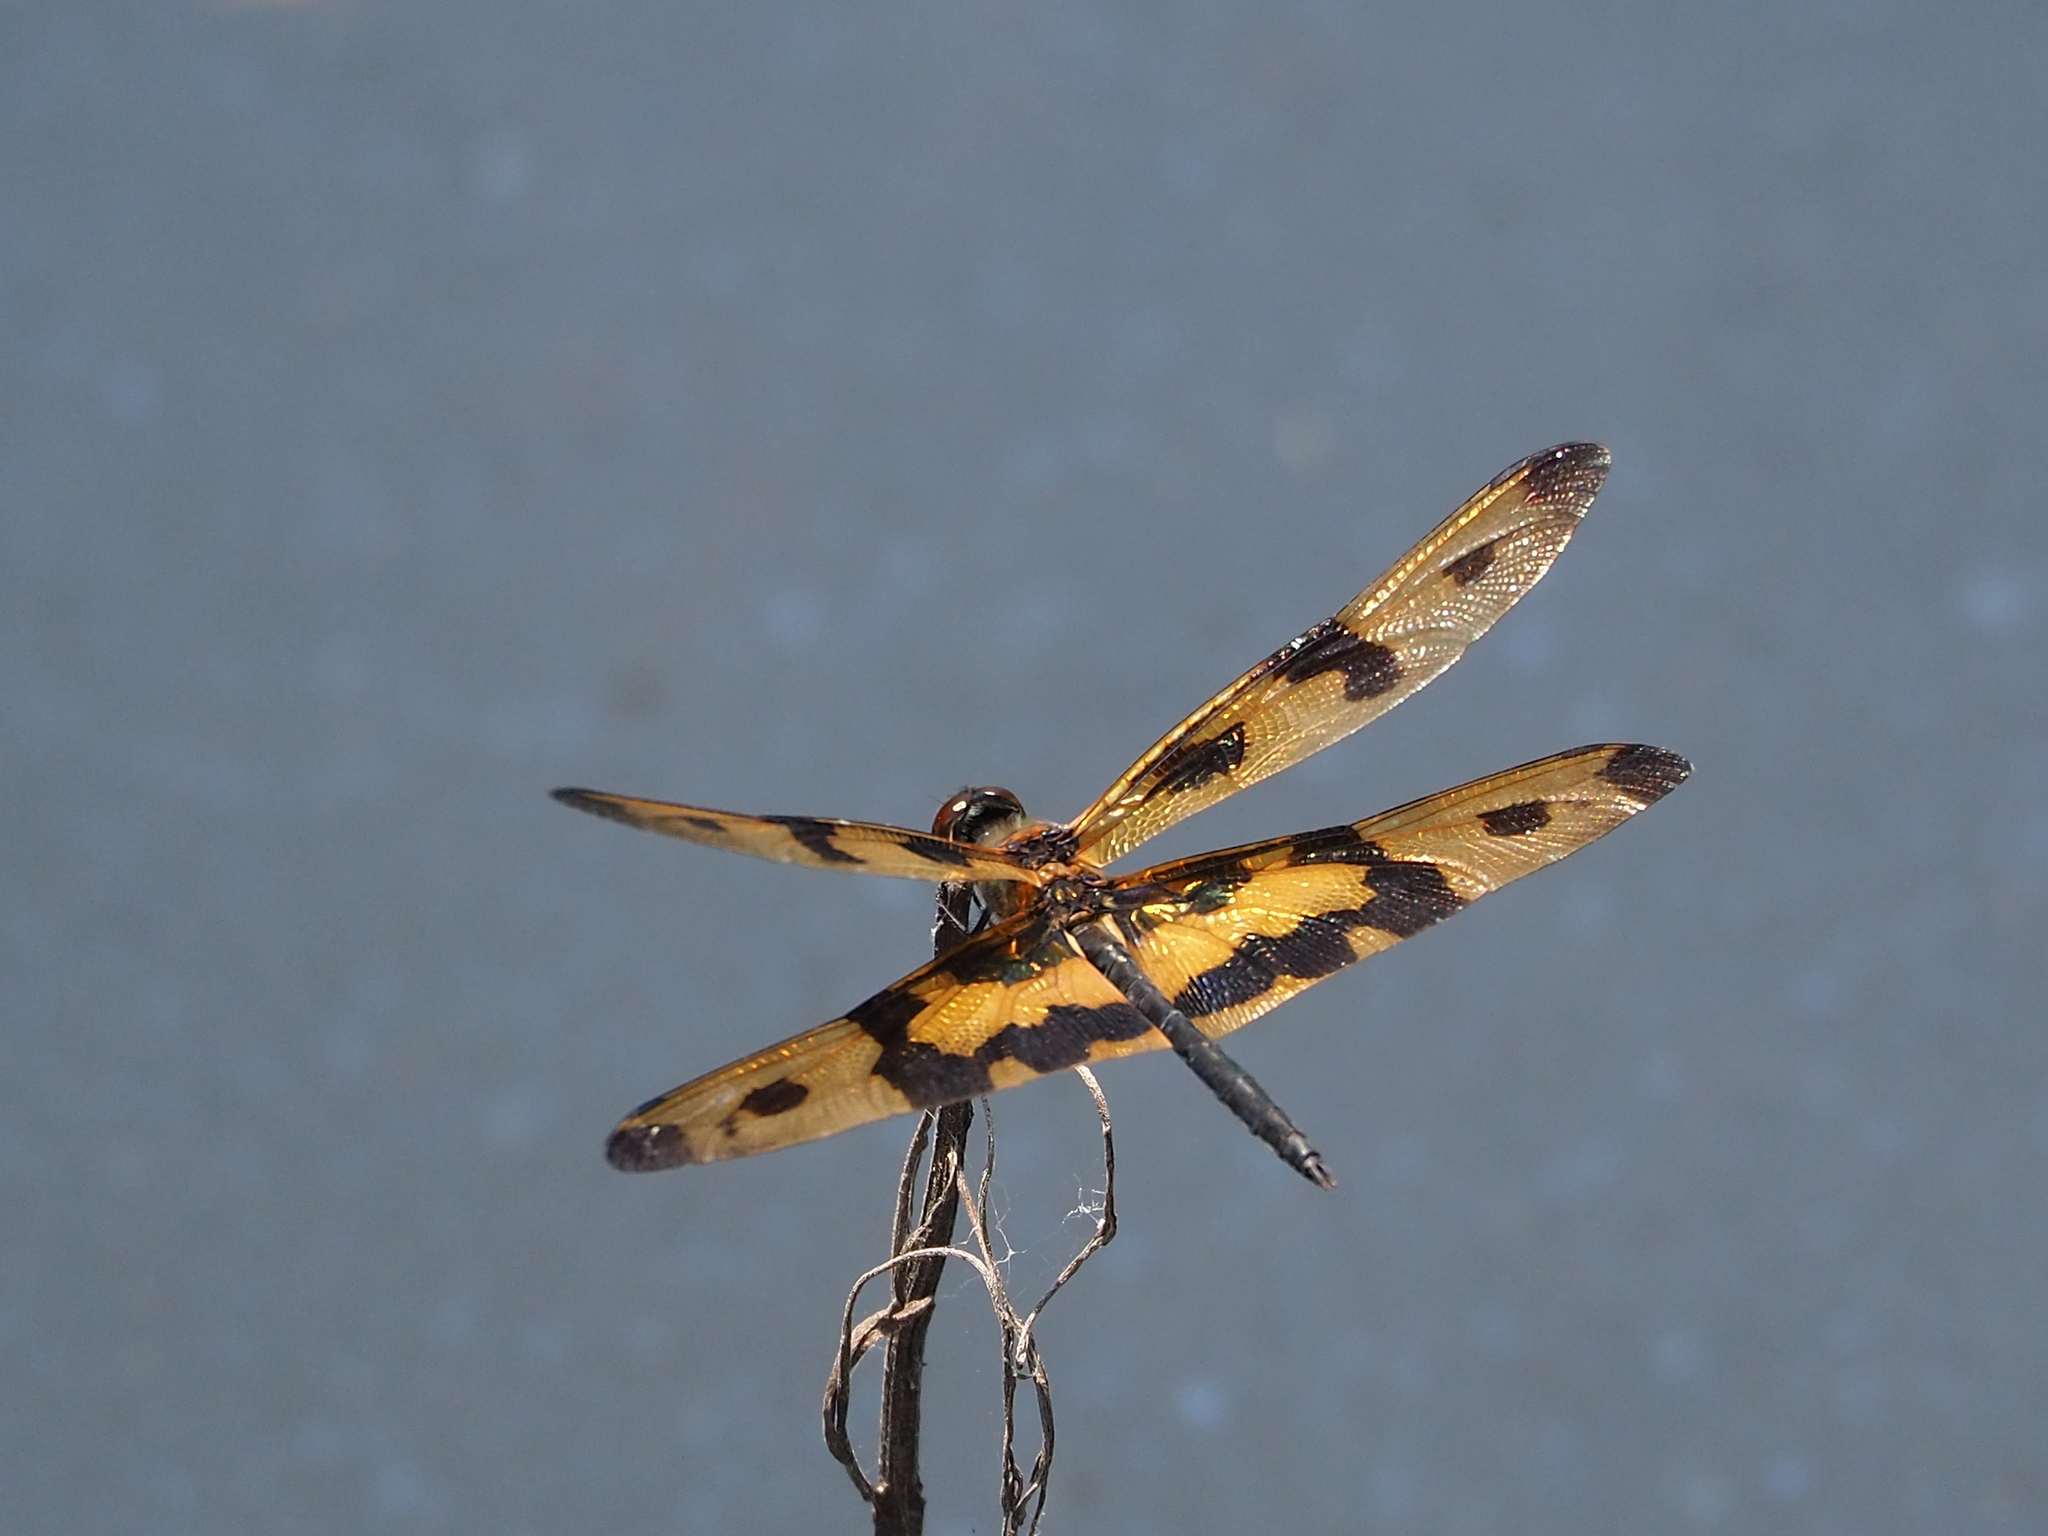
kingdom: Animalia
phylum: Arthropoda
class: Insecta
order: Odonata
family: Libellulidae
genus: Rhyothemis
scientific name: Rhyothemis variegata
